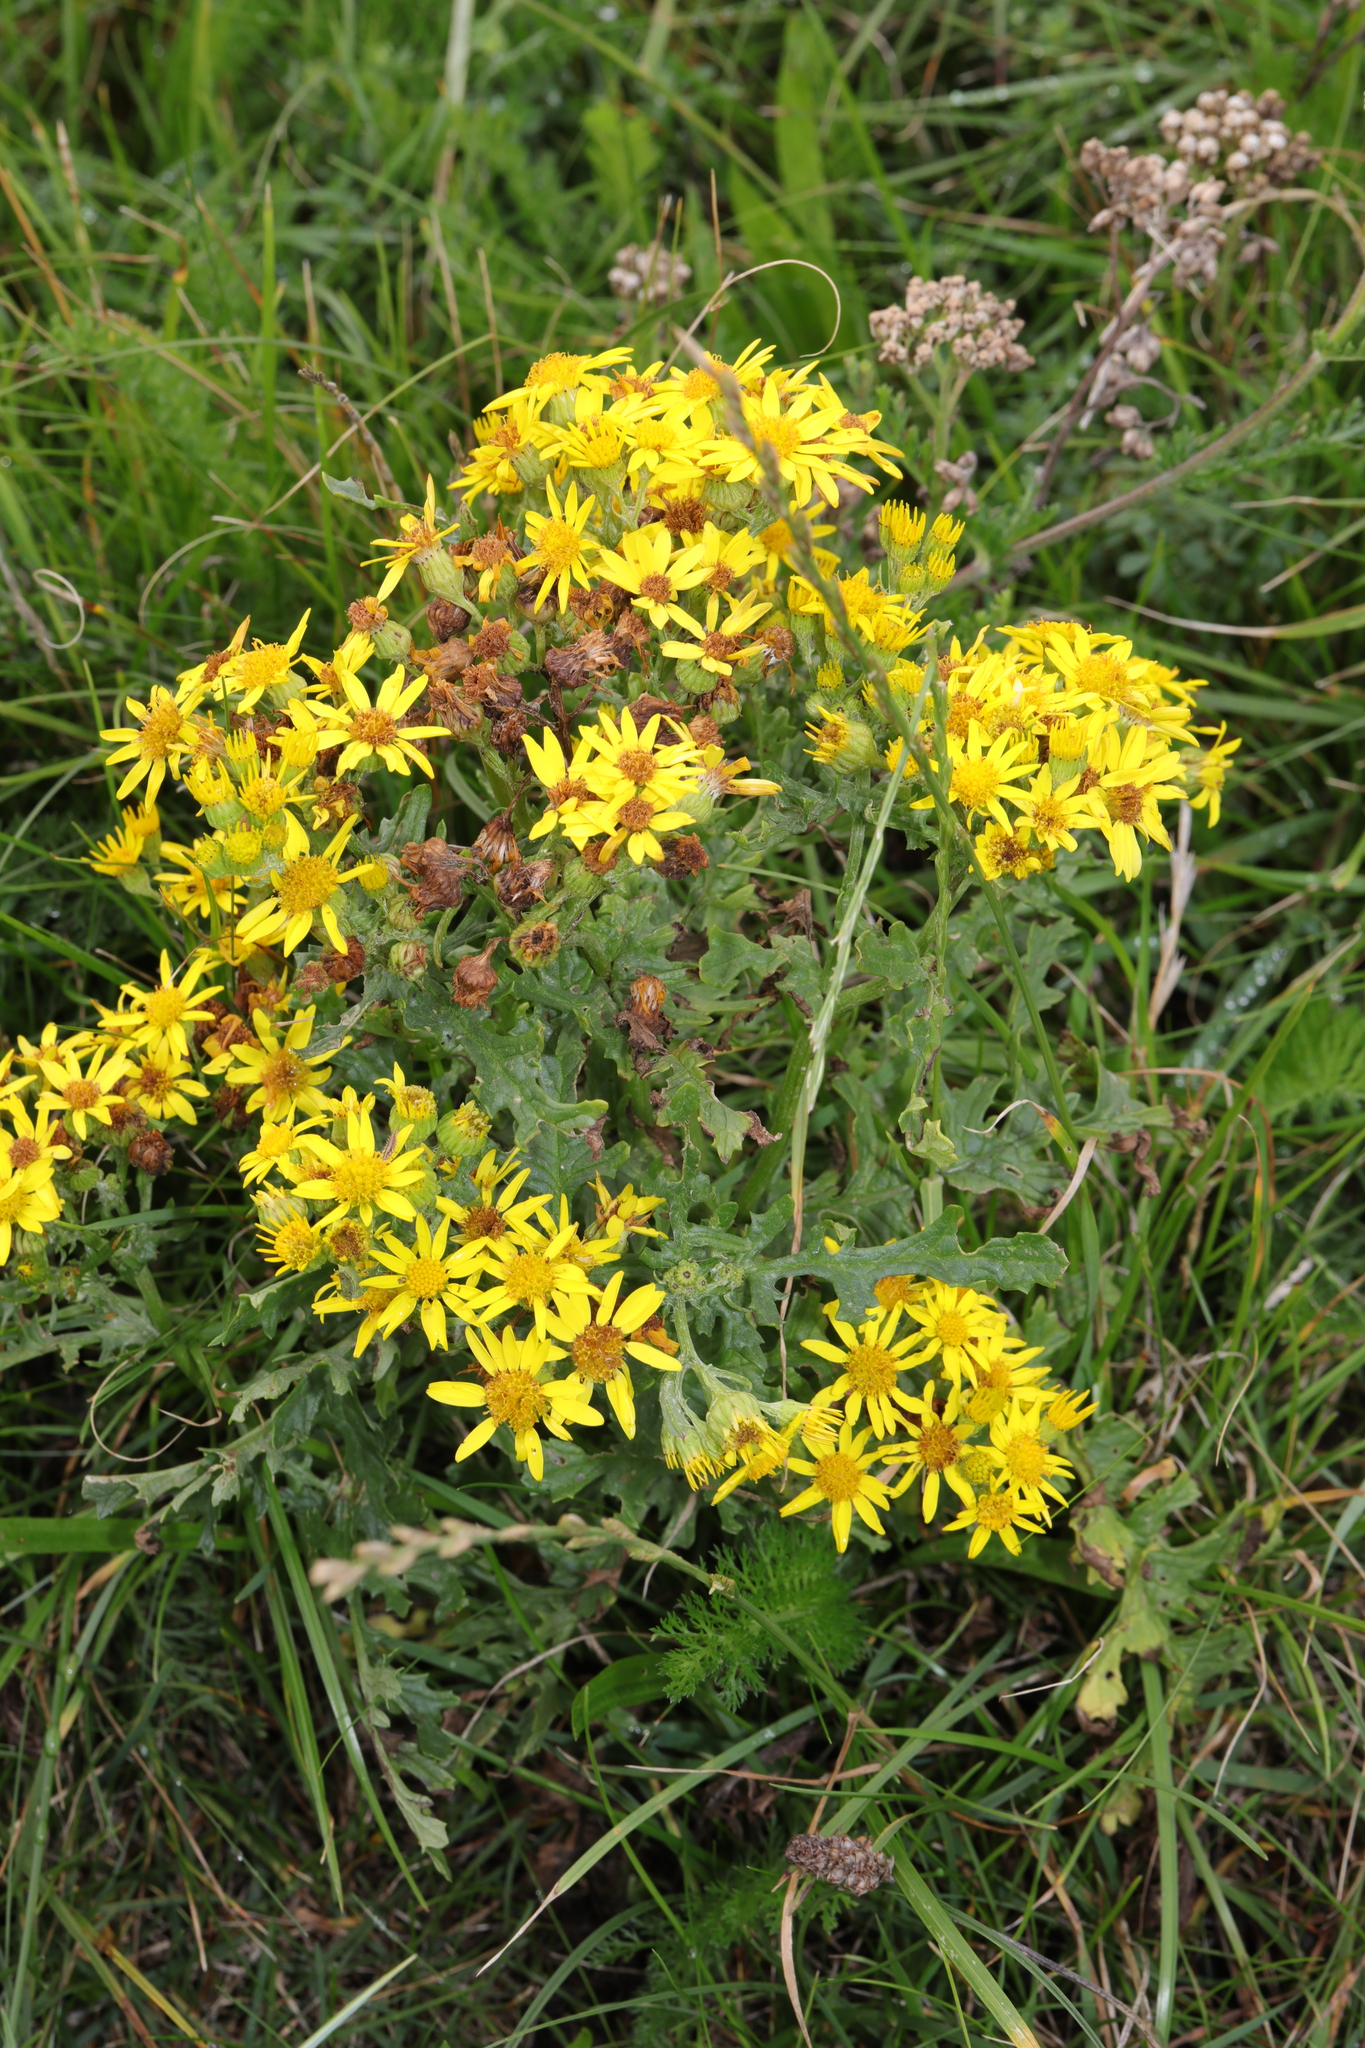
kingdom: Plantae
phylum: Tracheophyta
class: Magnoliopsida
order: Asterales
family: Asteraceae
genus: Jacobaea
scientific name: Jacobaea vulgaris
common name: Stinking willie
